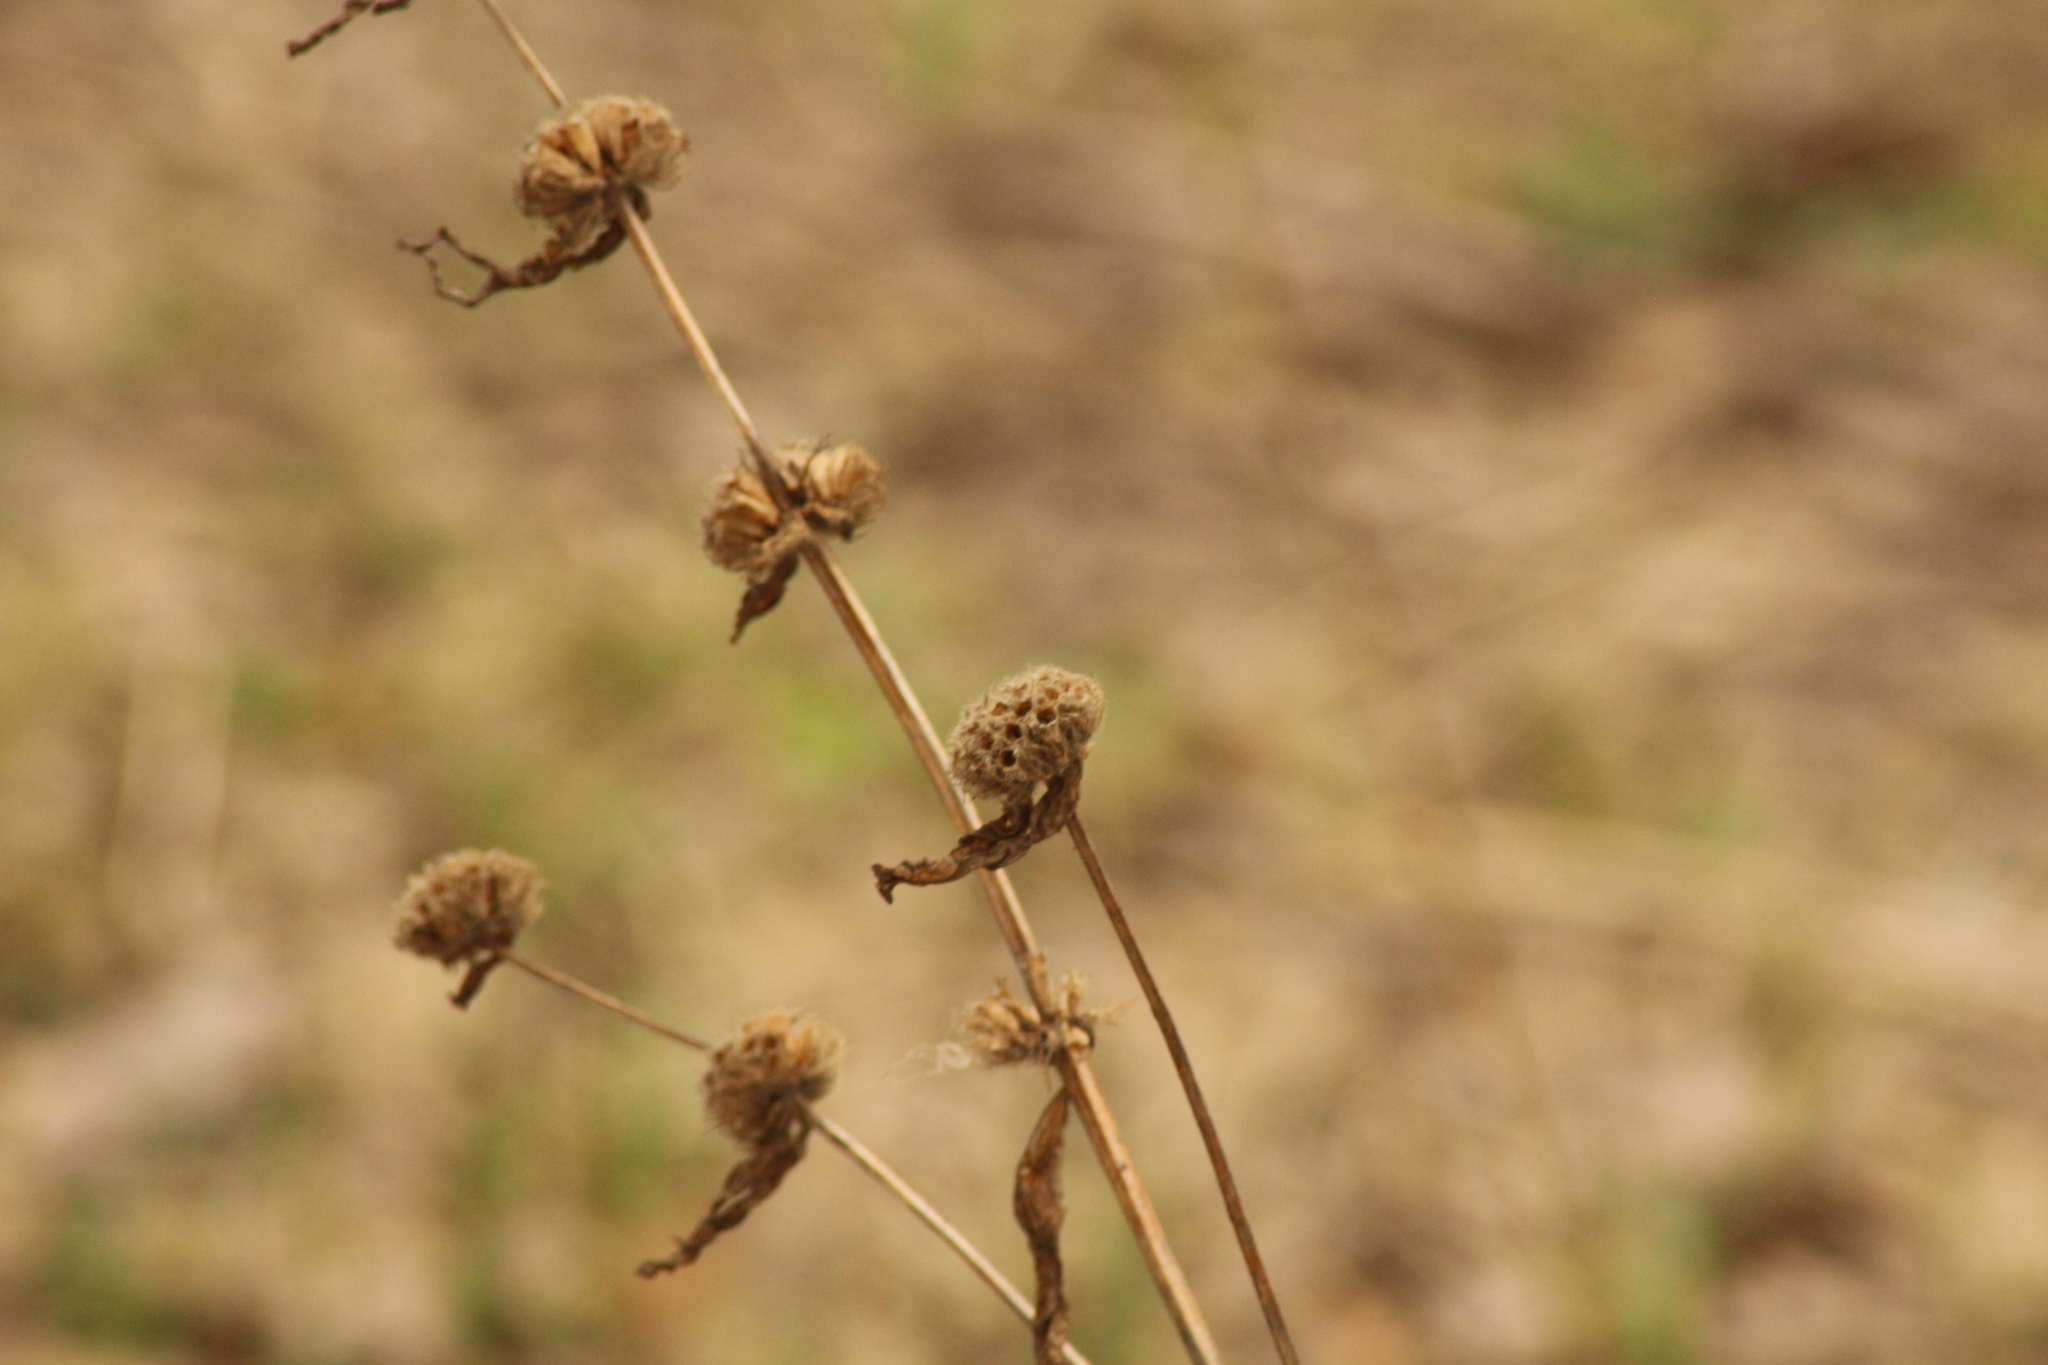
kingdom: Plantae
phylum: Tracheophyta
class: Magnoliopsida
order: Lamiales
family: Lamiaceae
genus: Phlomoides
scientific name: Phlomoides tuberosa
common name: Tuberous jerusalem sage
